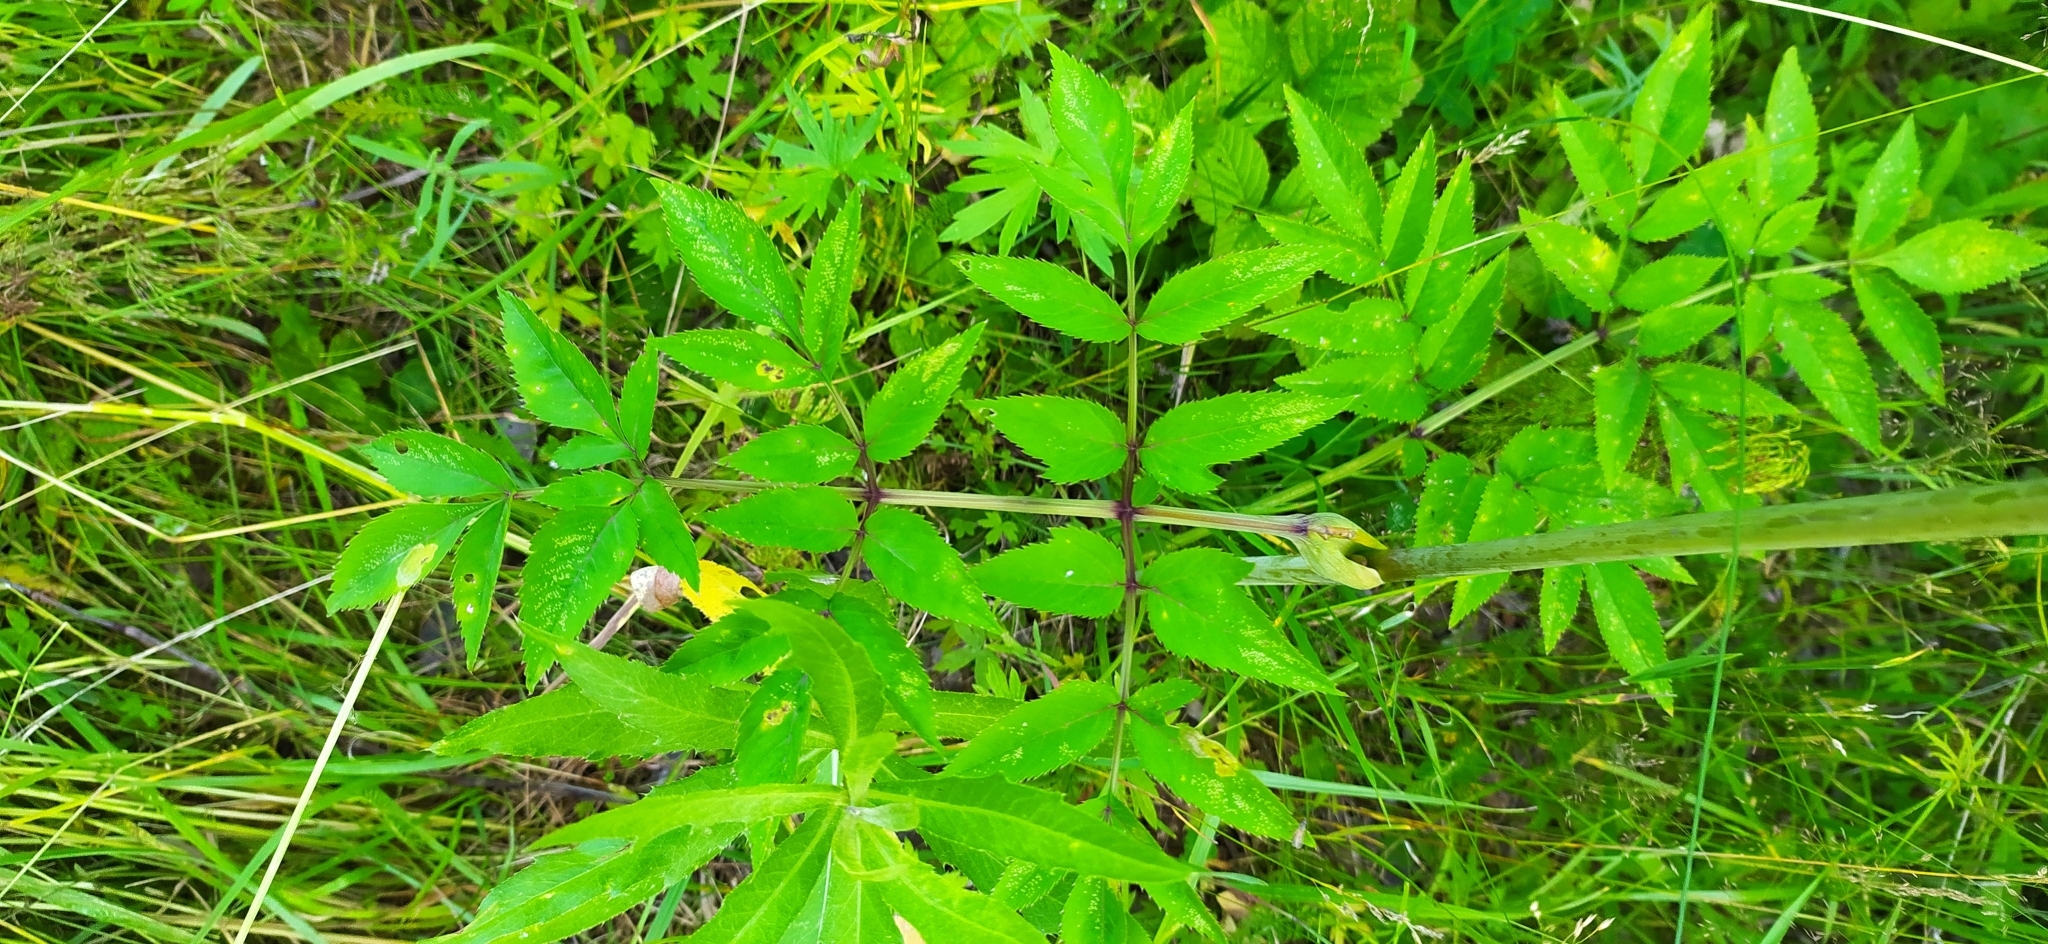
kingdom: Plantae
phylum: Tracheophyta
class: Magnoliopsida
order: Apiales
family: Apiaceae
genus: Angelica
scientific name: Angelica sylvestris
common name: Wild angelica
